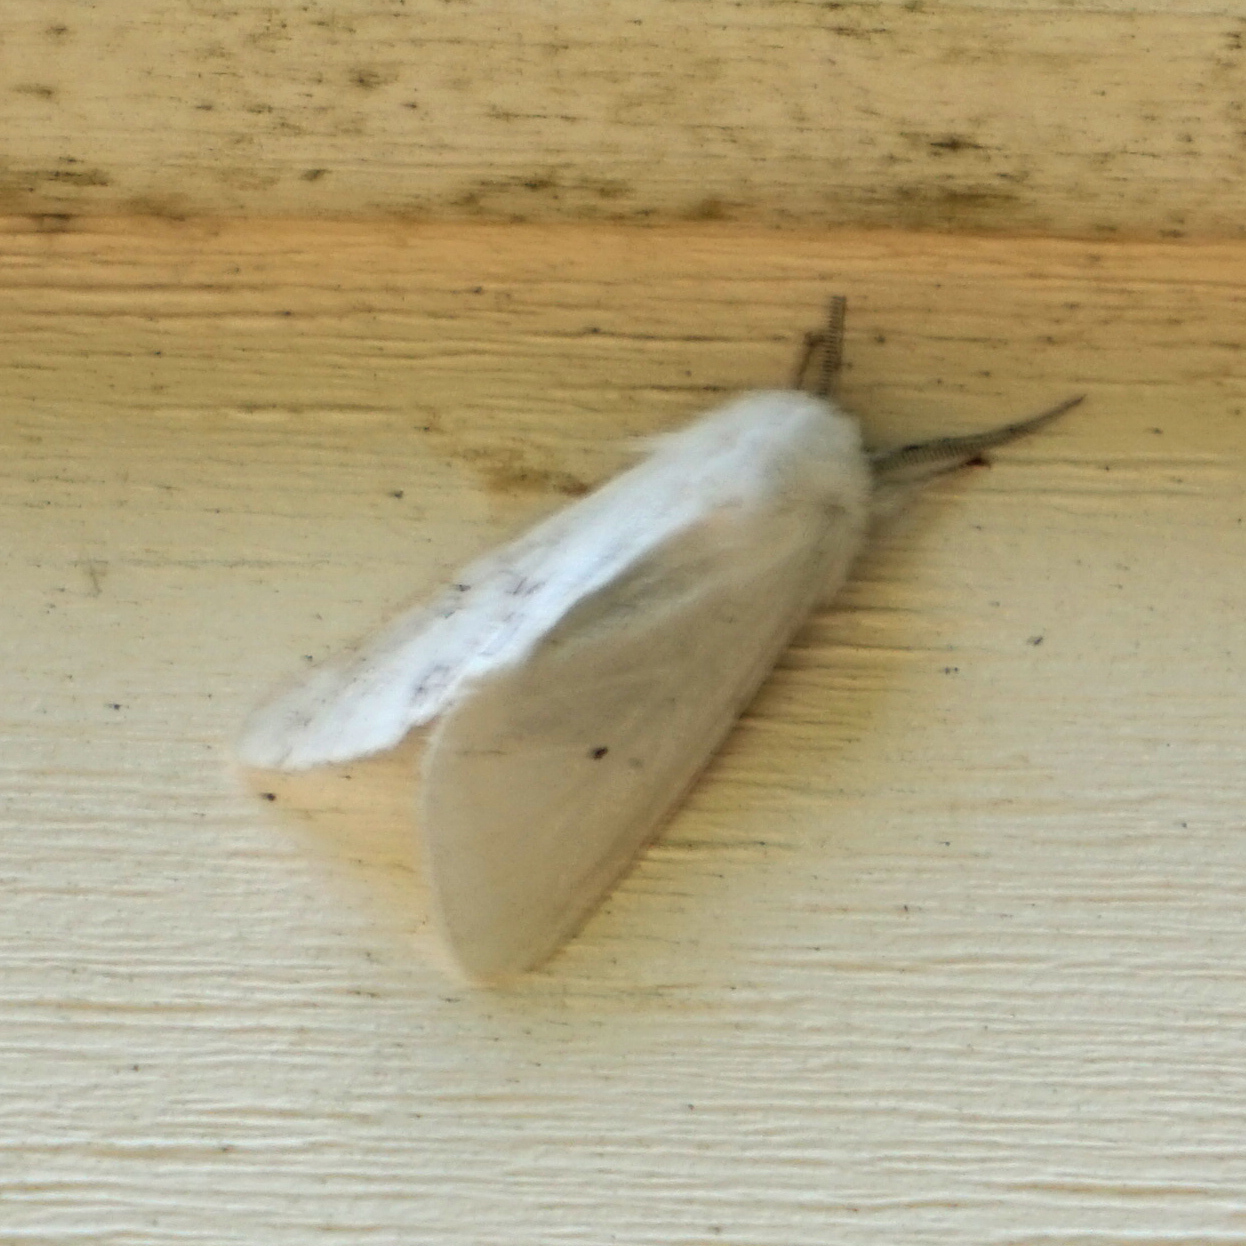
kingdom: Animalia
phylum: Arthropoda
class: Insecta
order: Lepidoptera
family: Erebidae
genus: Spilosoma
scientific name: Spilosoma virginica
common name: Virginia tiger moth
